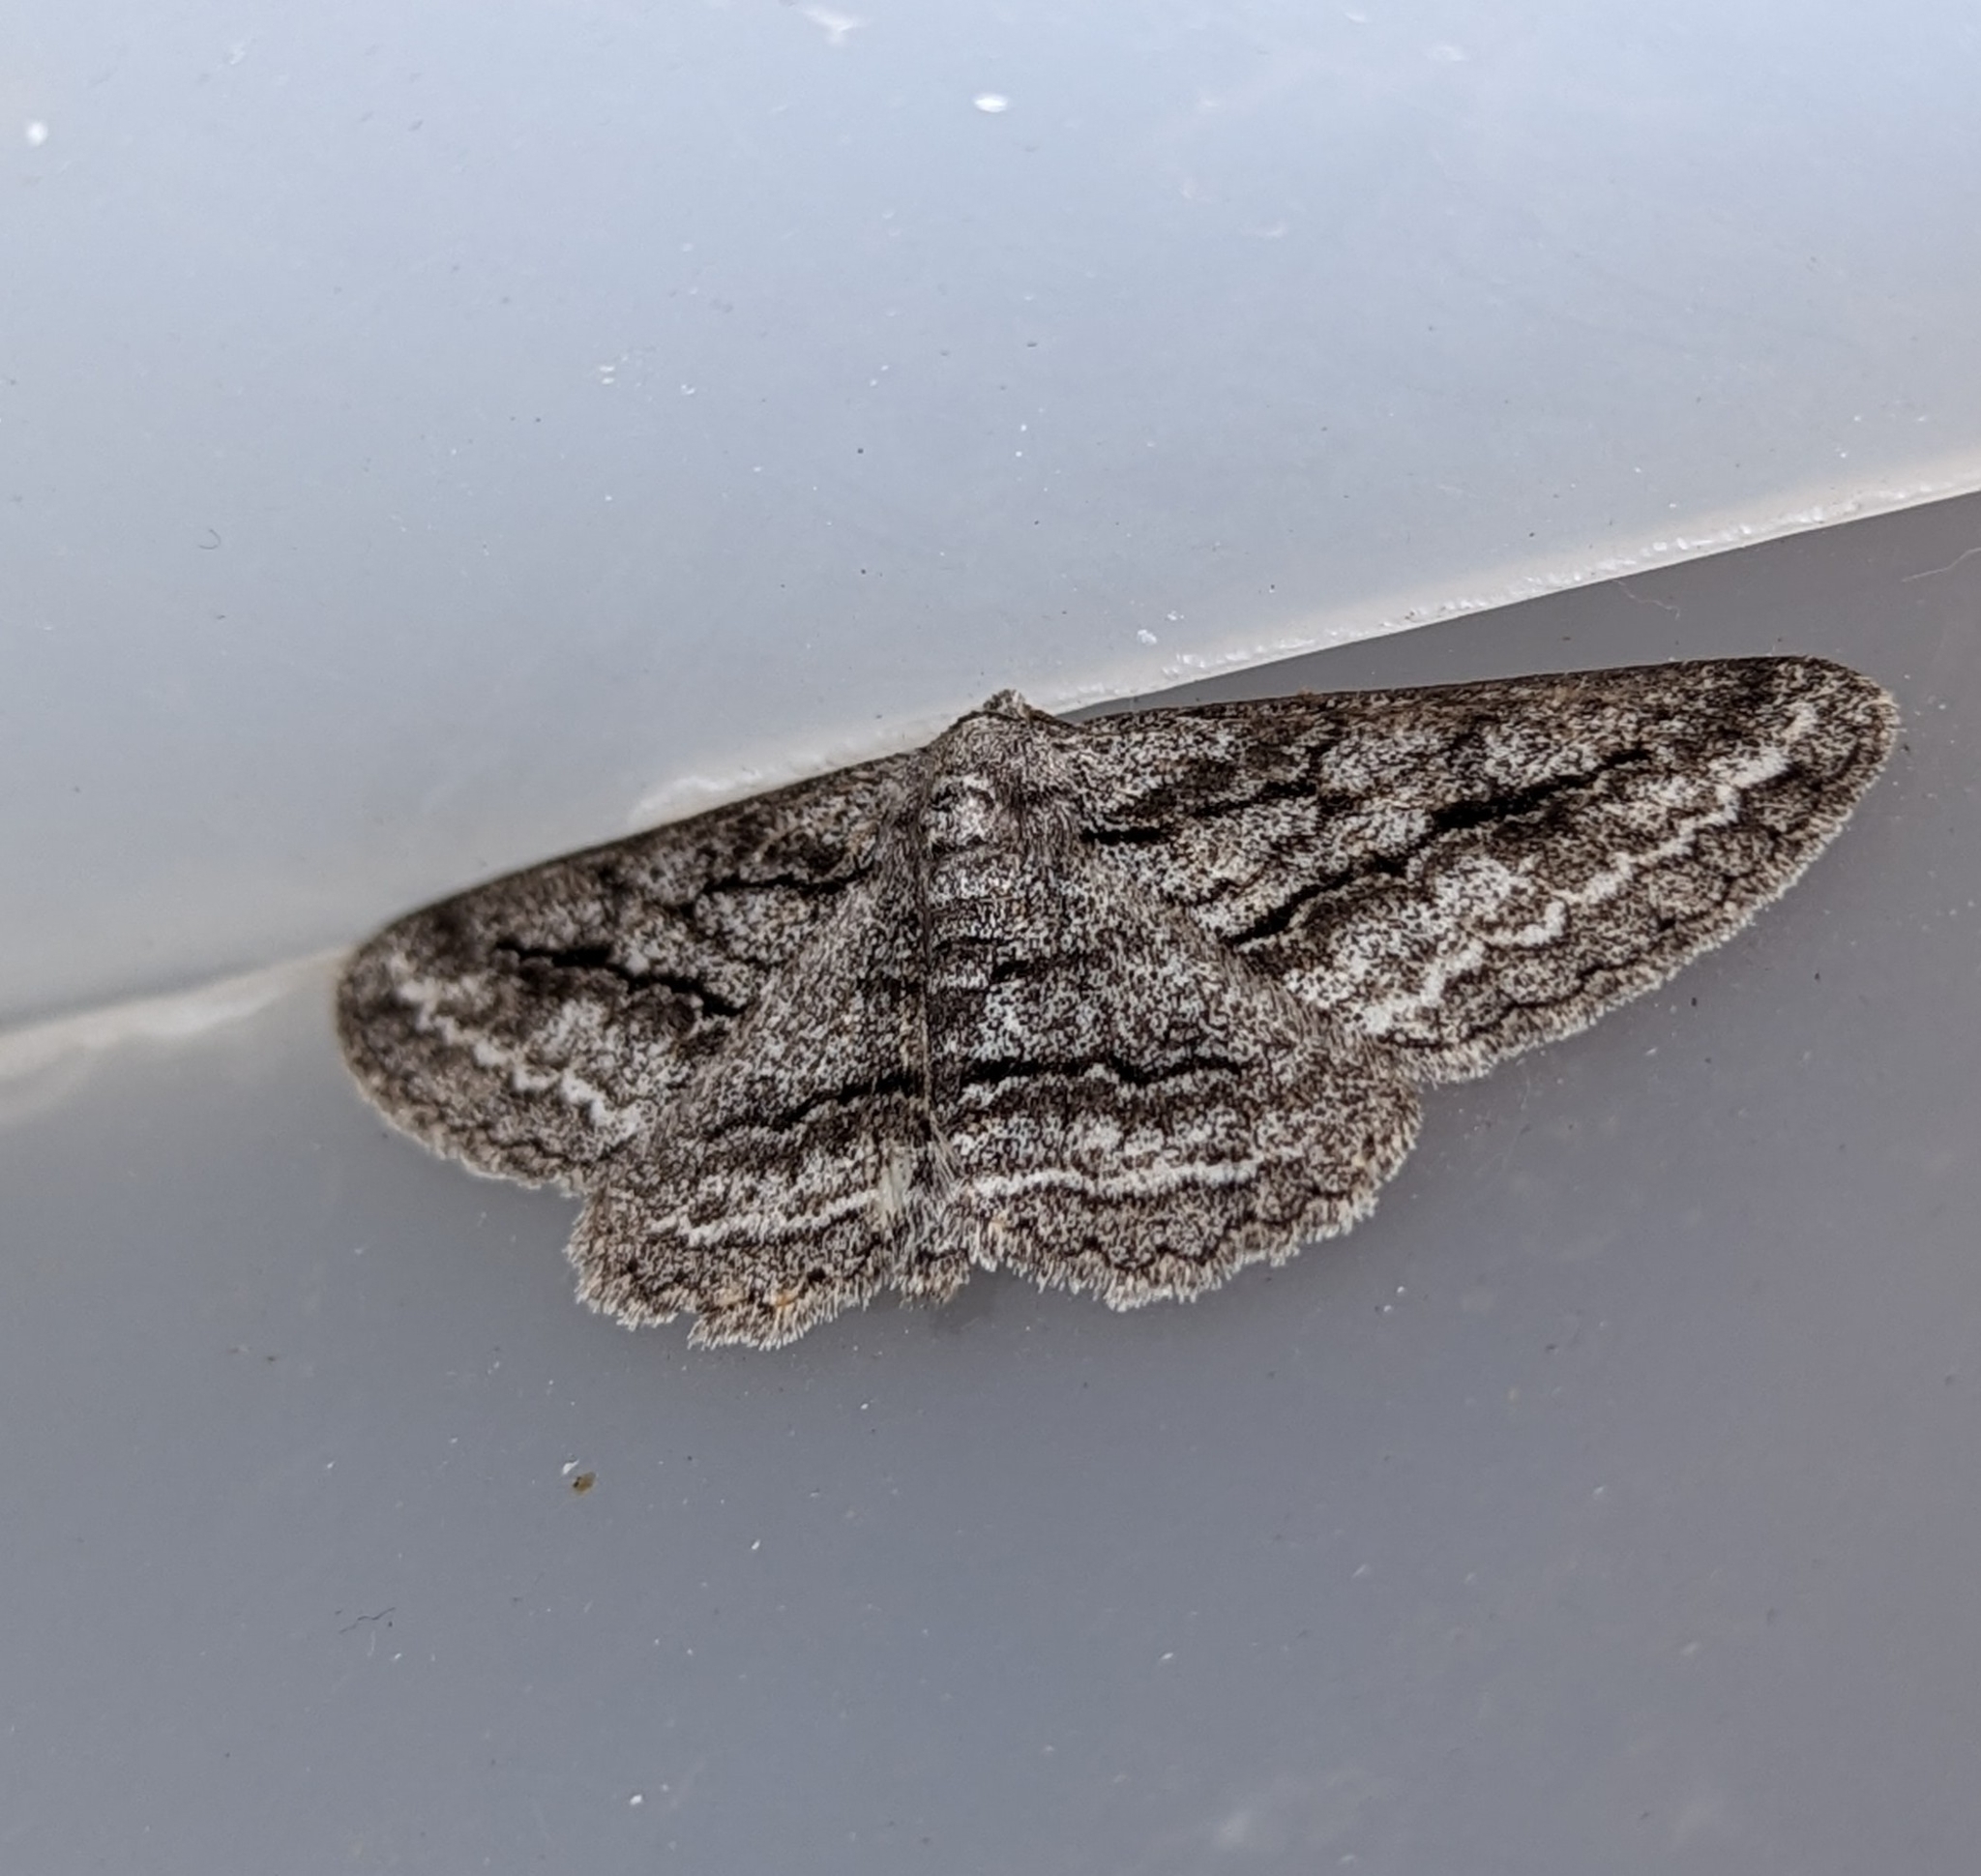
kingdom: Animalia
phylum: Arthropoda
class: Insecta
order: Lepidoptera
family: Geometridae
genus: Stenoporpia
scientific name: Stenoporpia excelsaria
